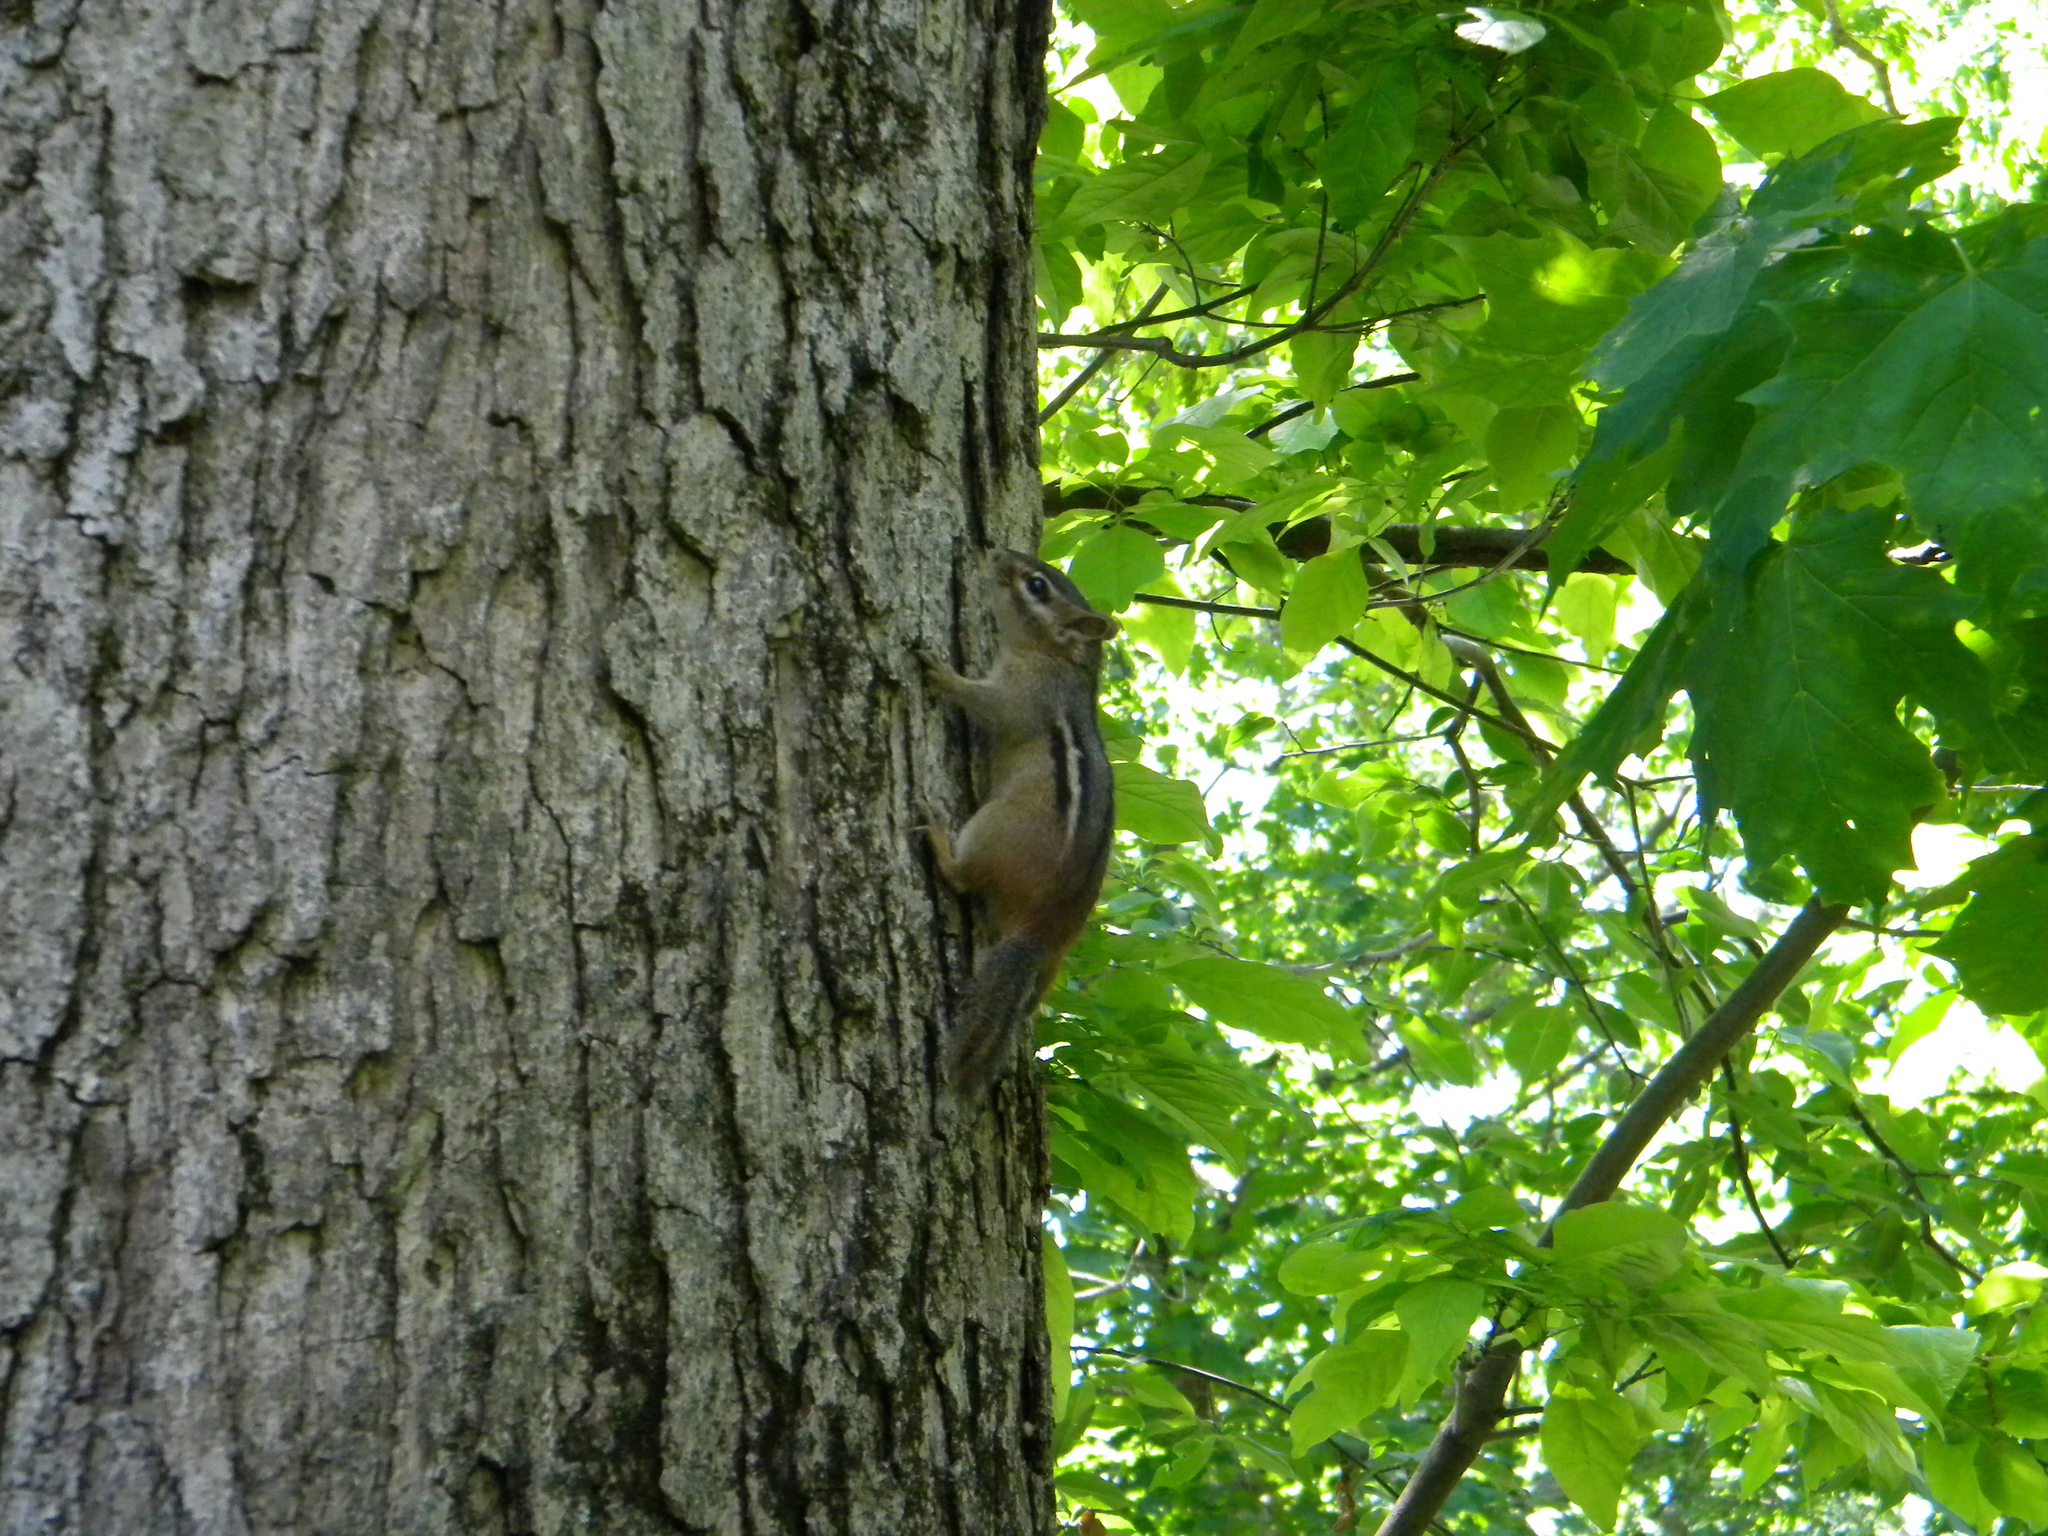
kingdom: Animalia
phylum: Chordata
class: Mammalia
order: Rodentia
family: Sciuridae
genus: Tamias
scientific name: Tamias striatus
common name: Eastern chipmunk
